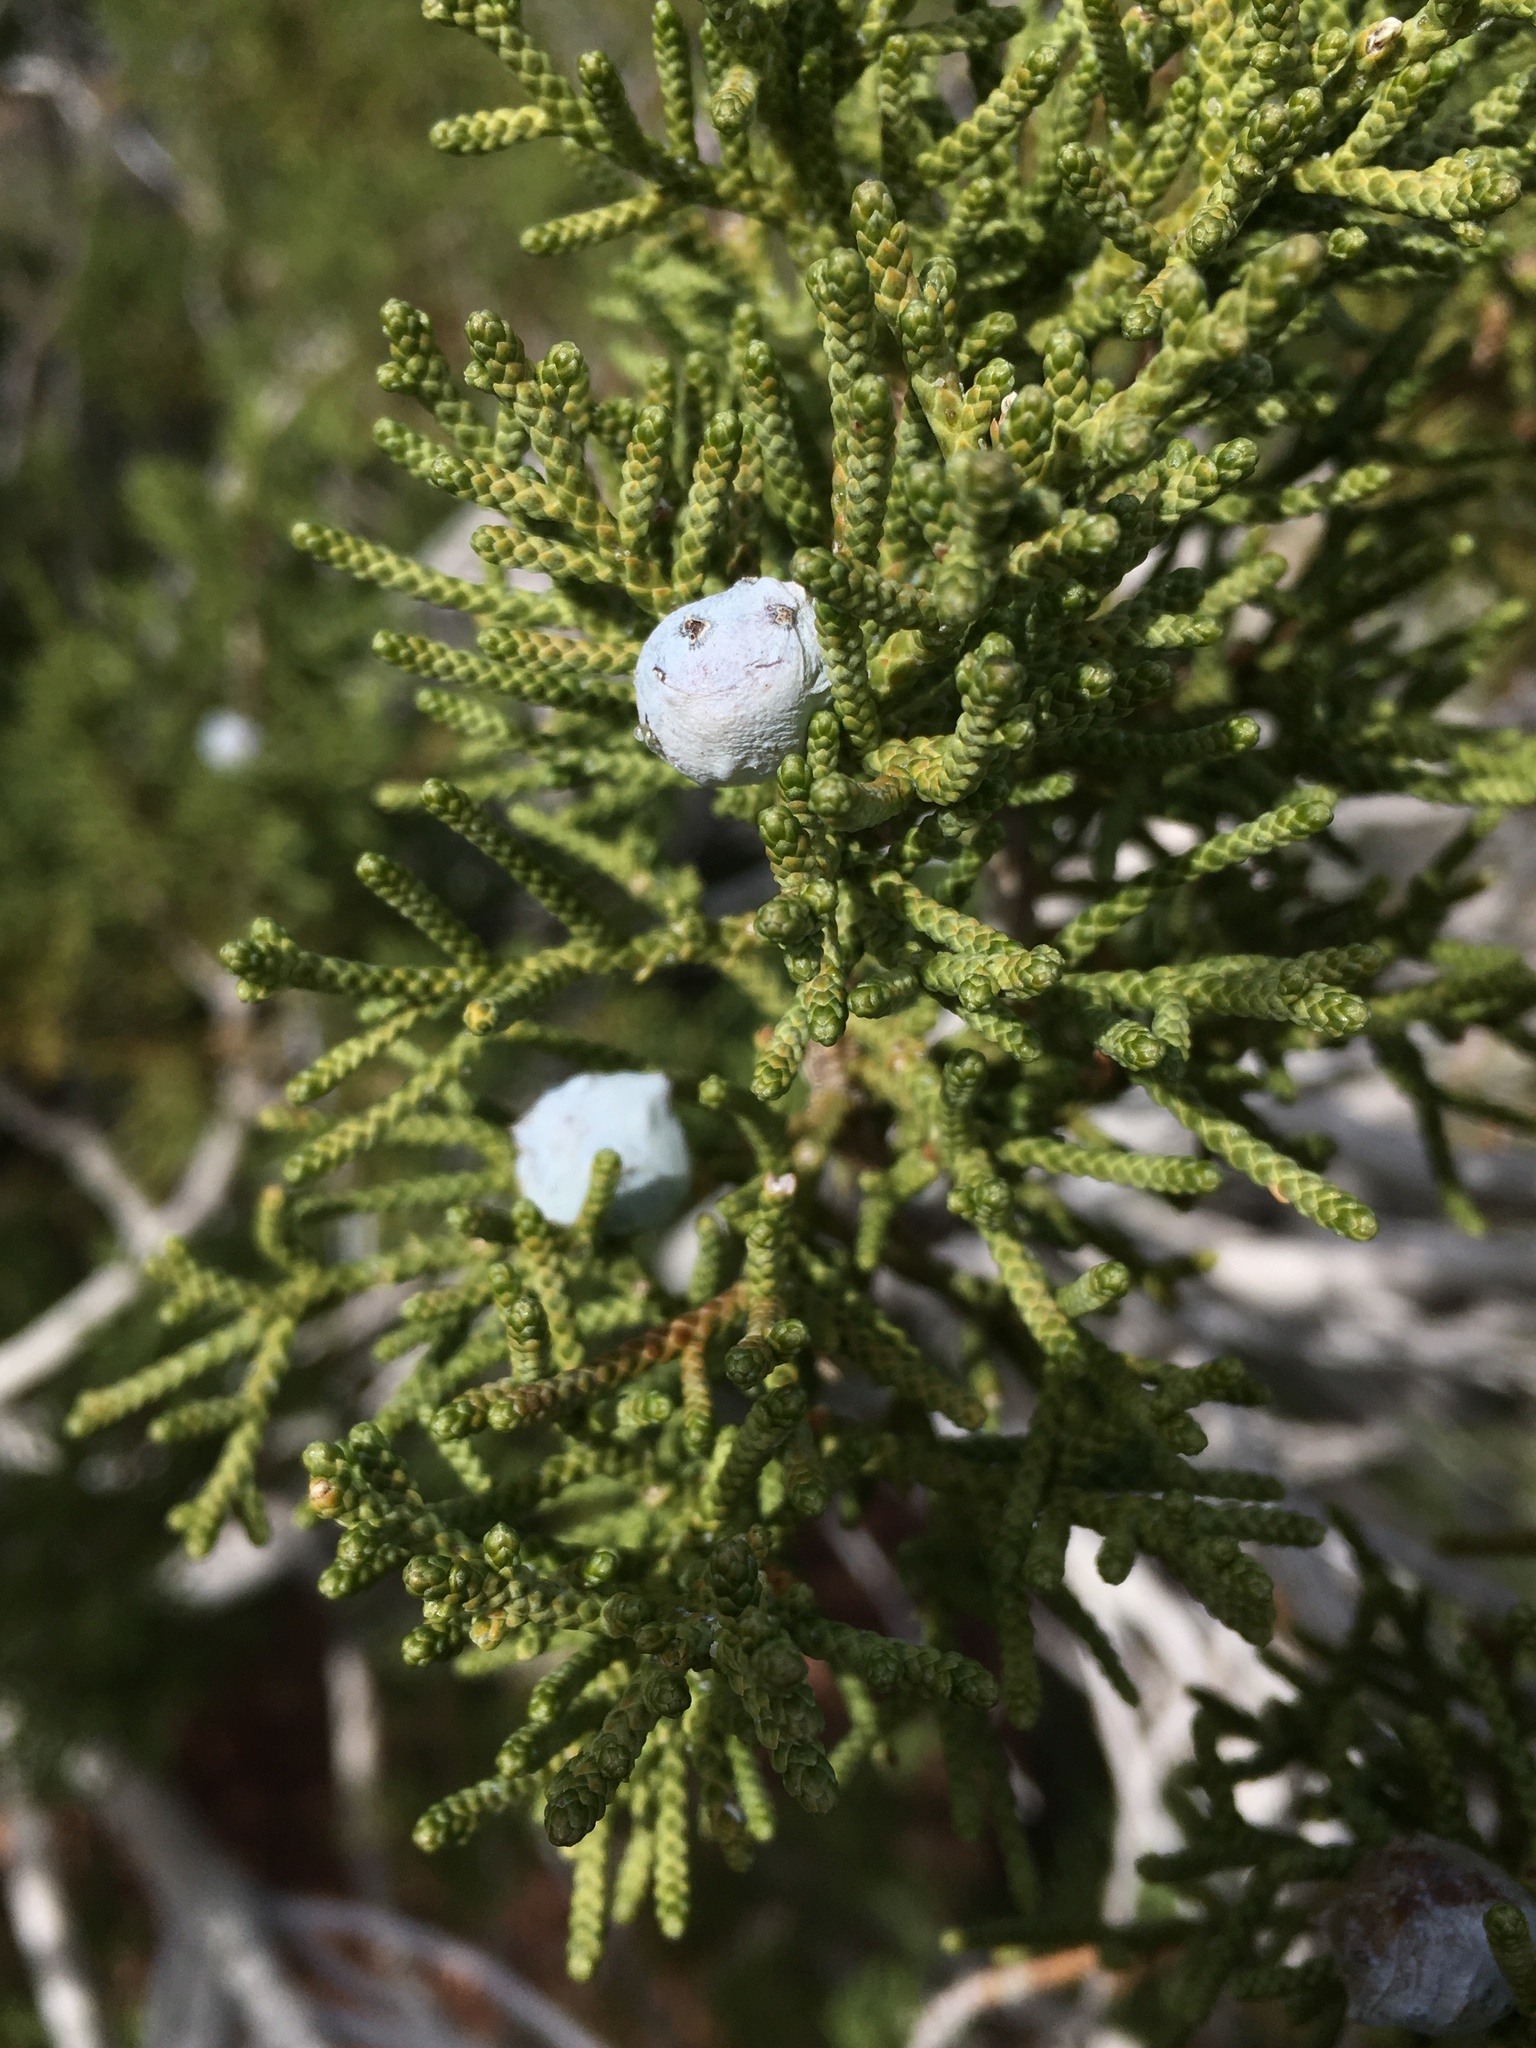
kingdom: Plantae
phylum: Tracheophyta
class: Pinopsida
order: Pinales
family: Cupressaceae
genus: Juniperus
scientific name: Juniperus californica
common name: California juniper
